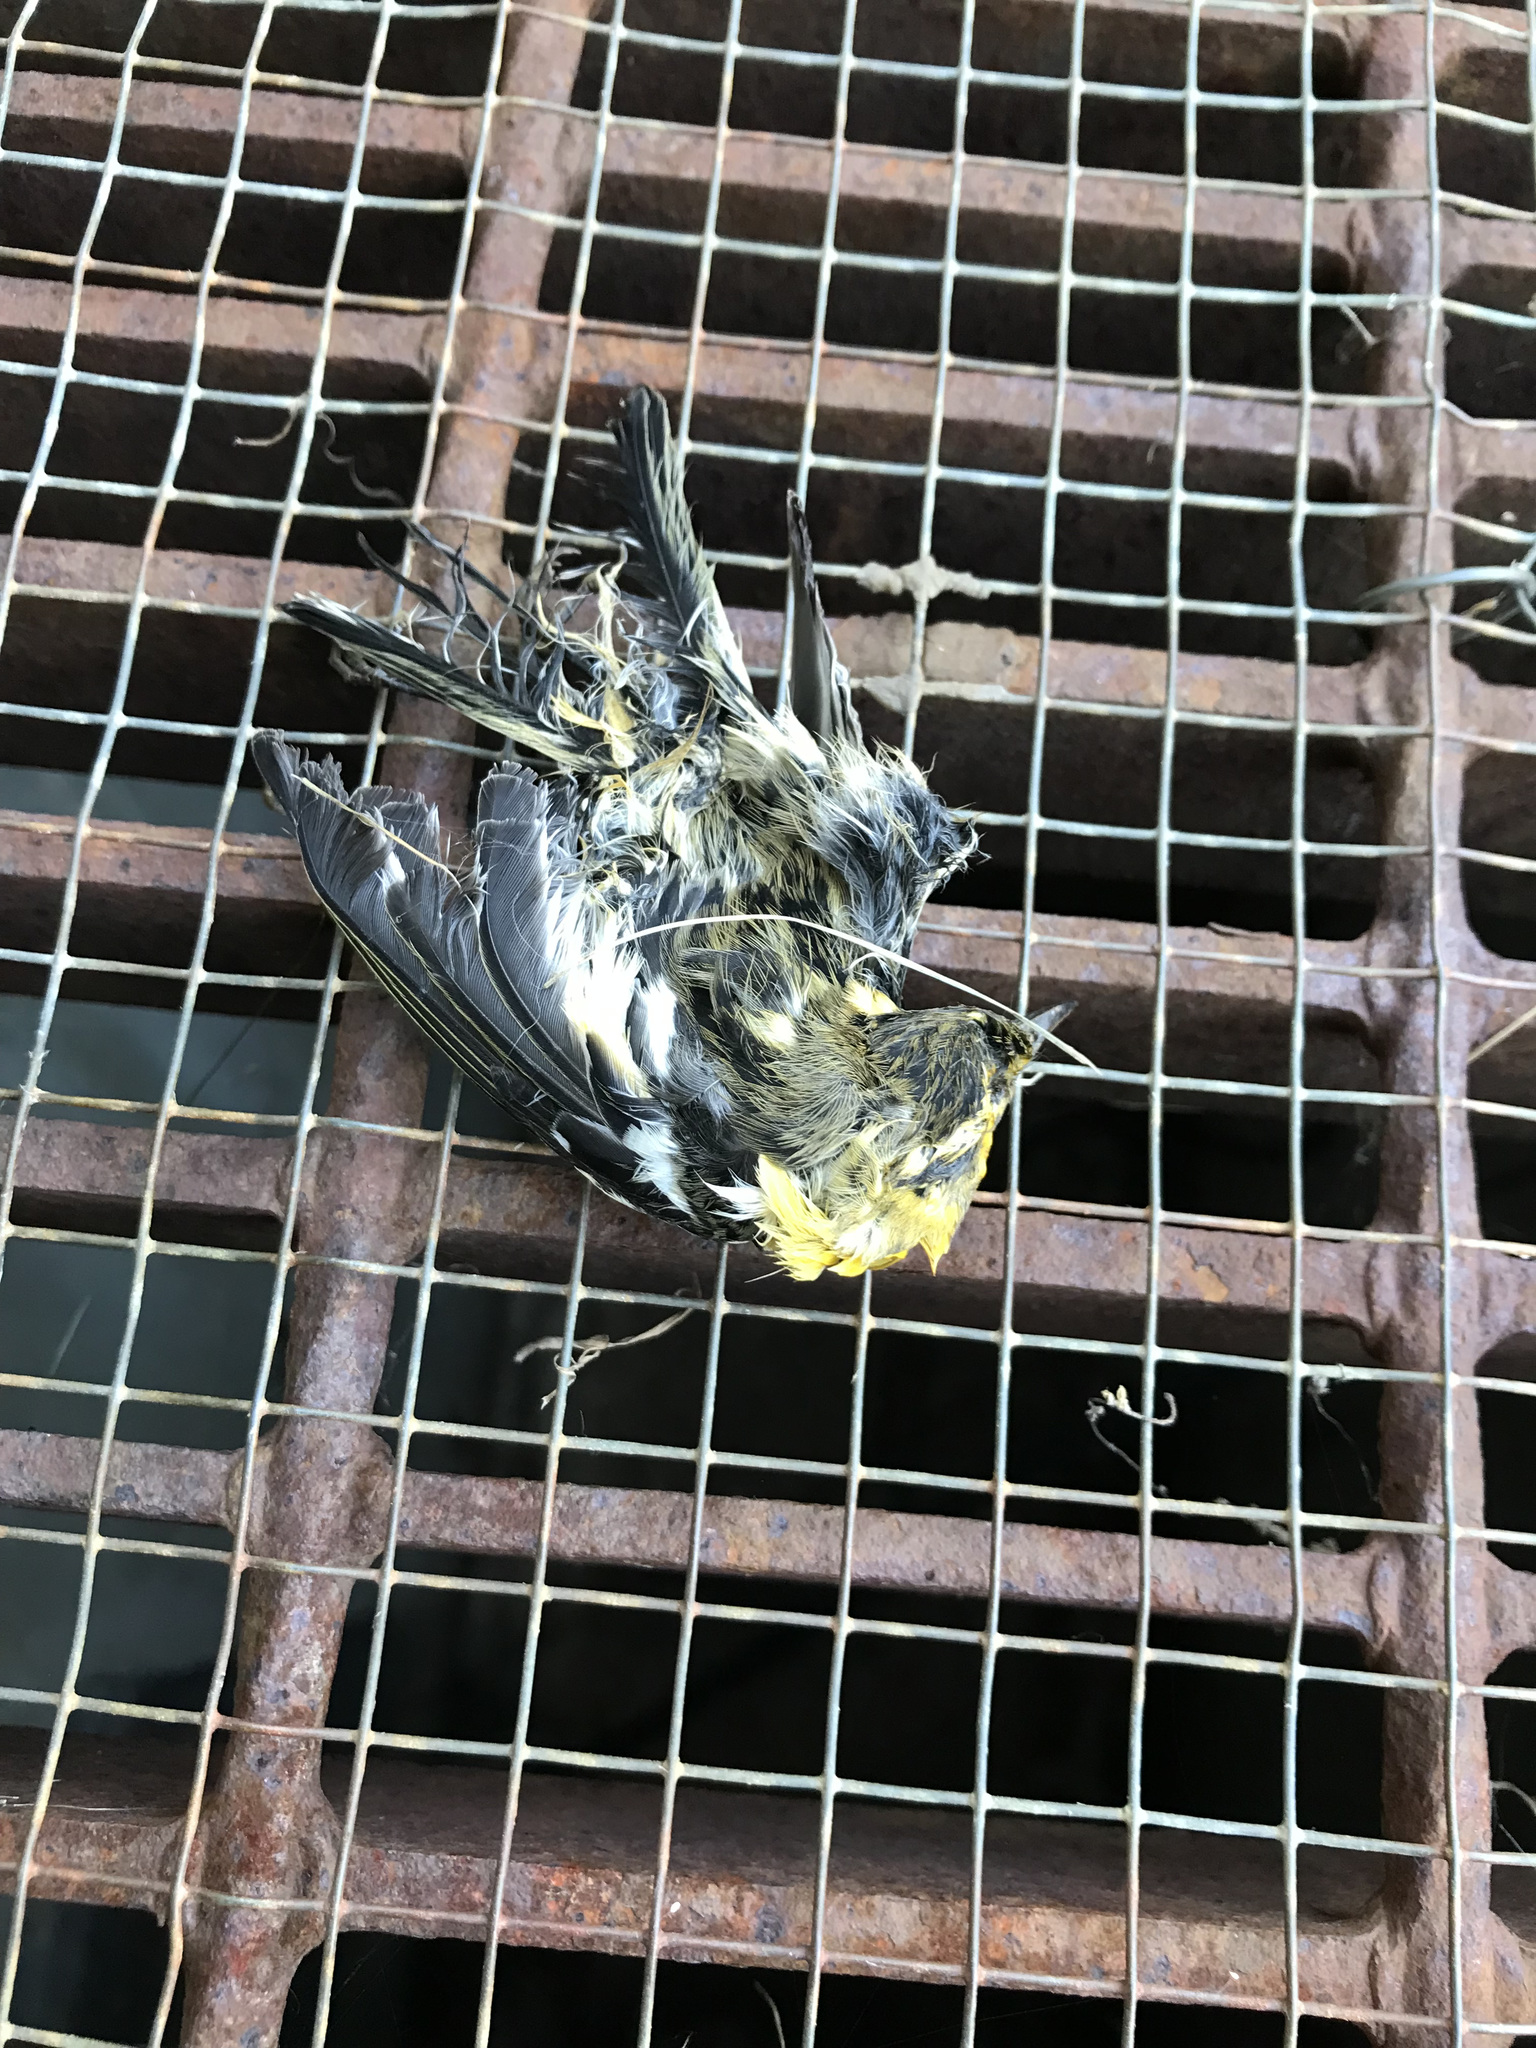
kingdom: Animalia
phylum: Chordata
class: Aves
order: Passeriformes
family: Parulidae
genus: Setophaga
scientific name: Setophaga fusca
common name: Blackburnian warbler
